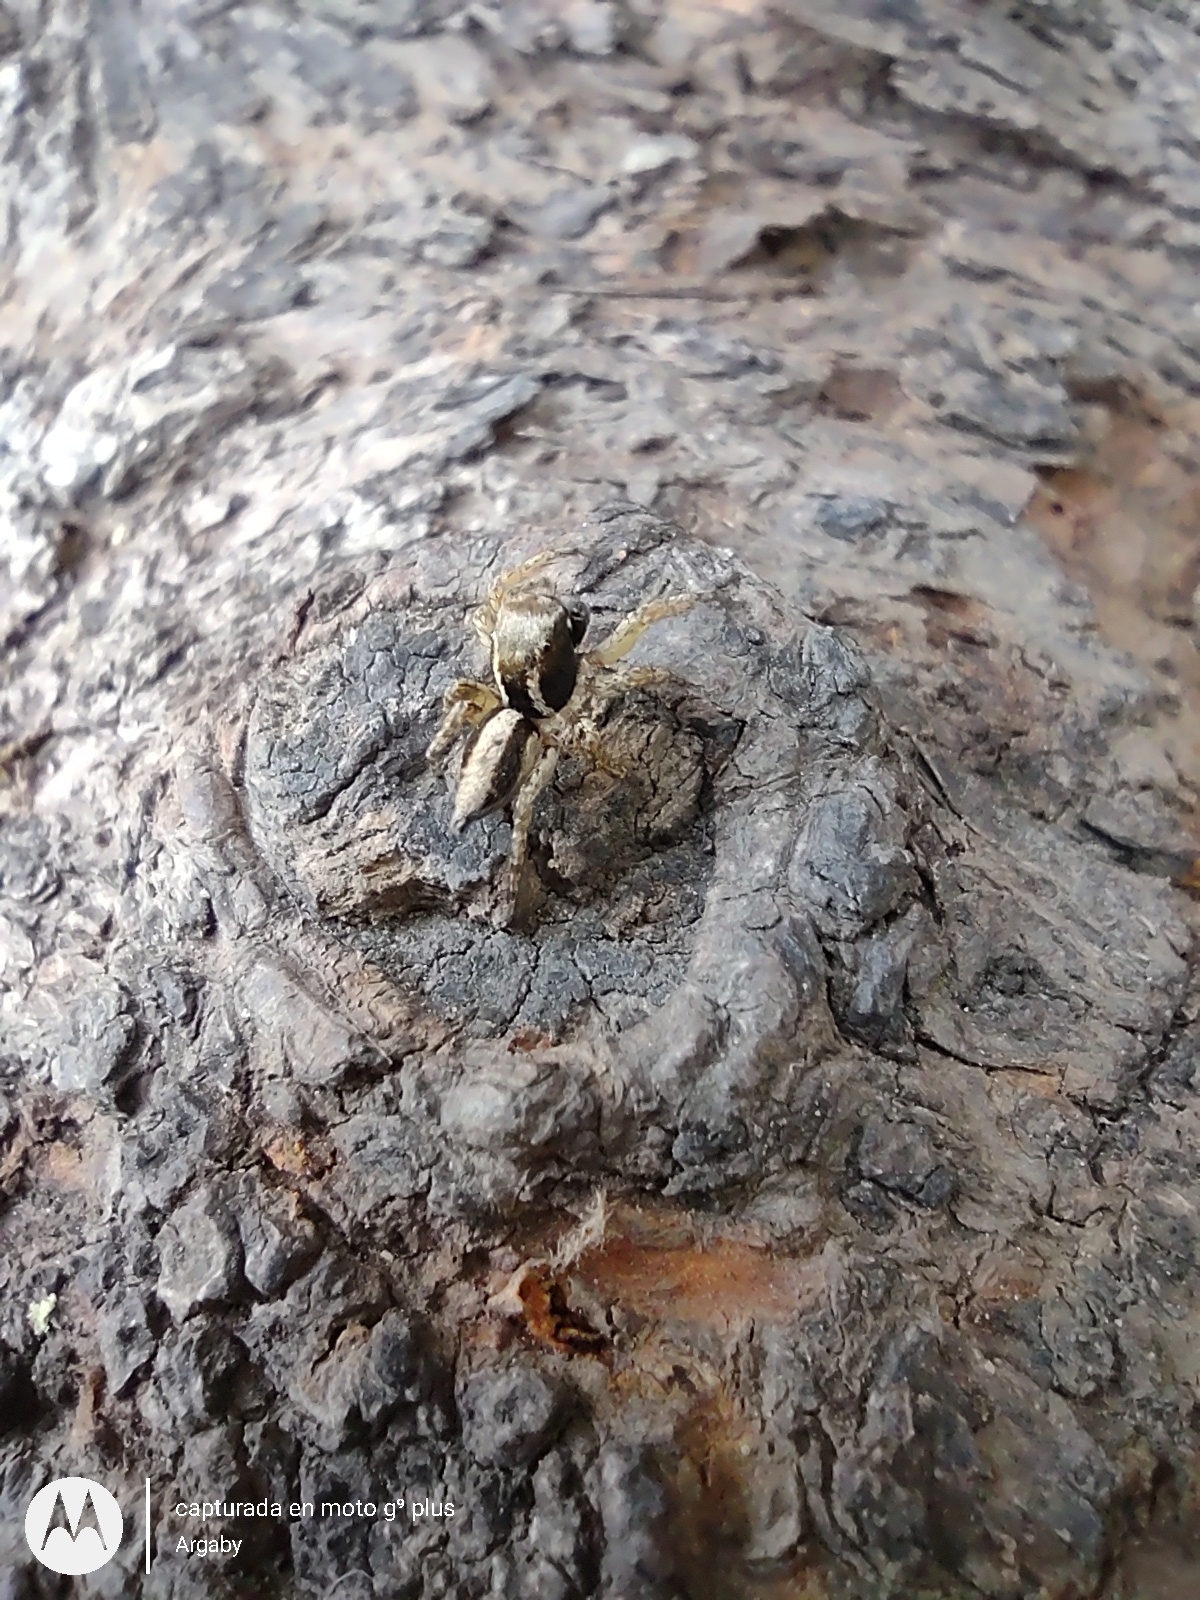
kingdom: Animalia
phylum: Arthropoda
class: Arachnida
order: Araneae
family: Salticidae
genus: Aphirape
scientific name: Aphirape
